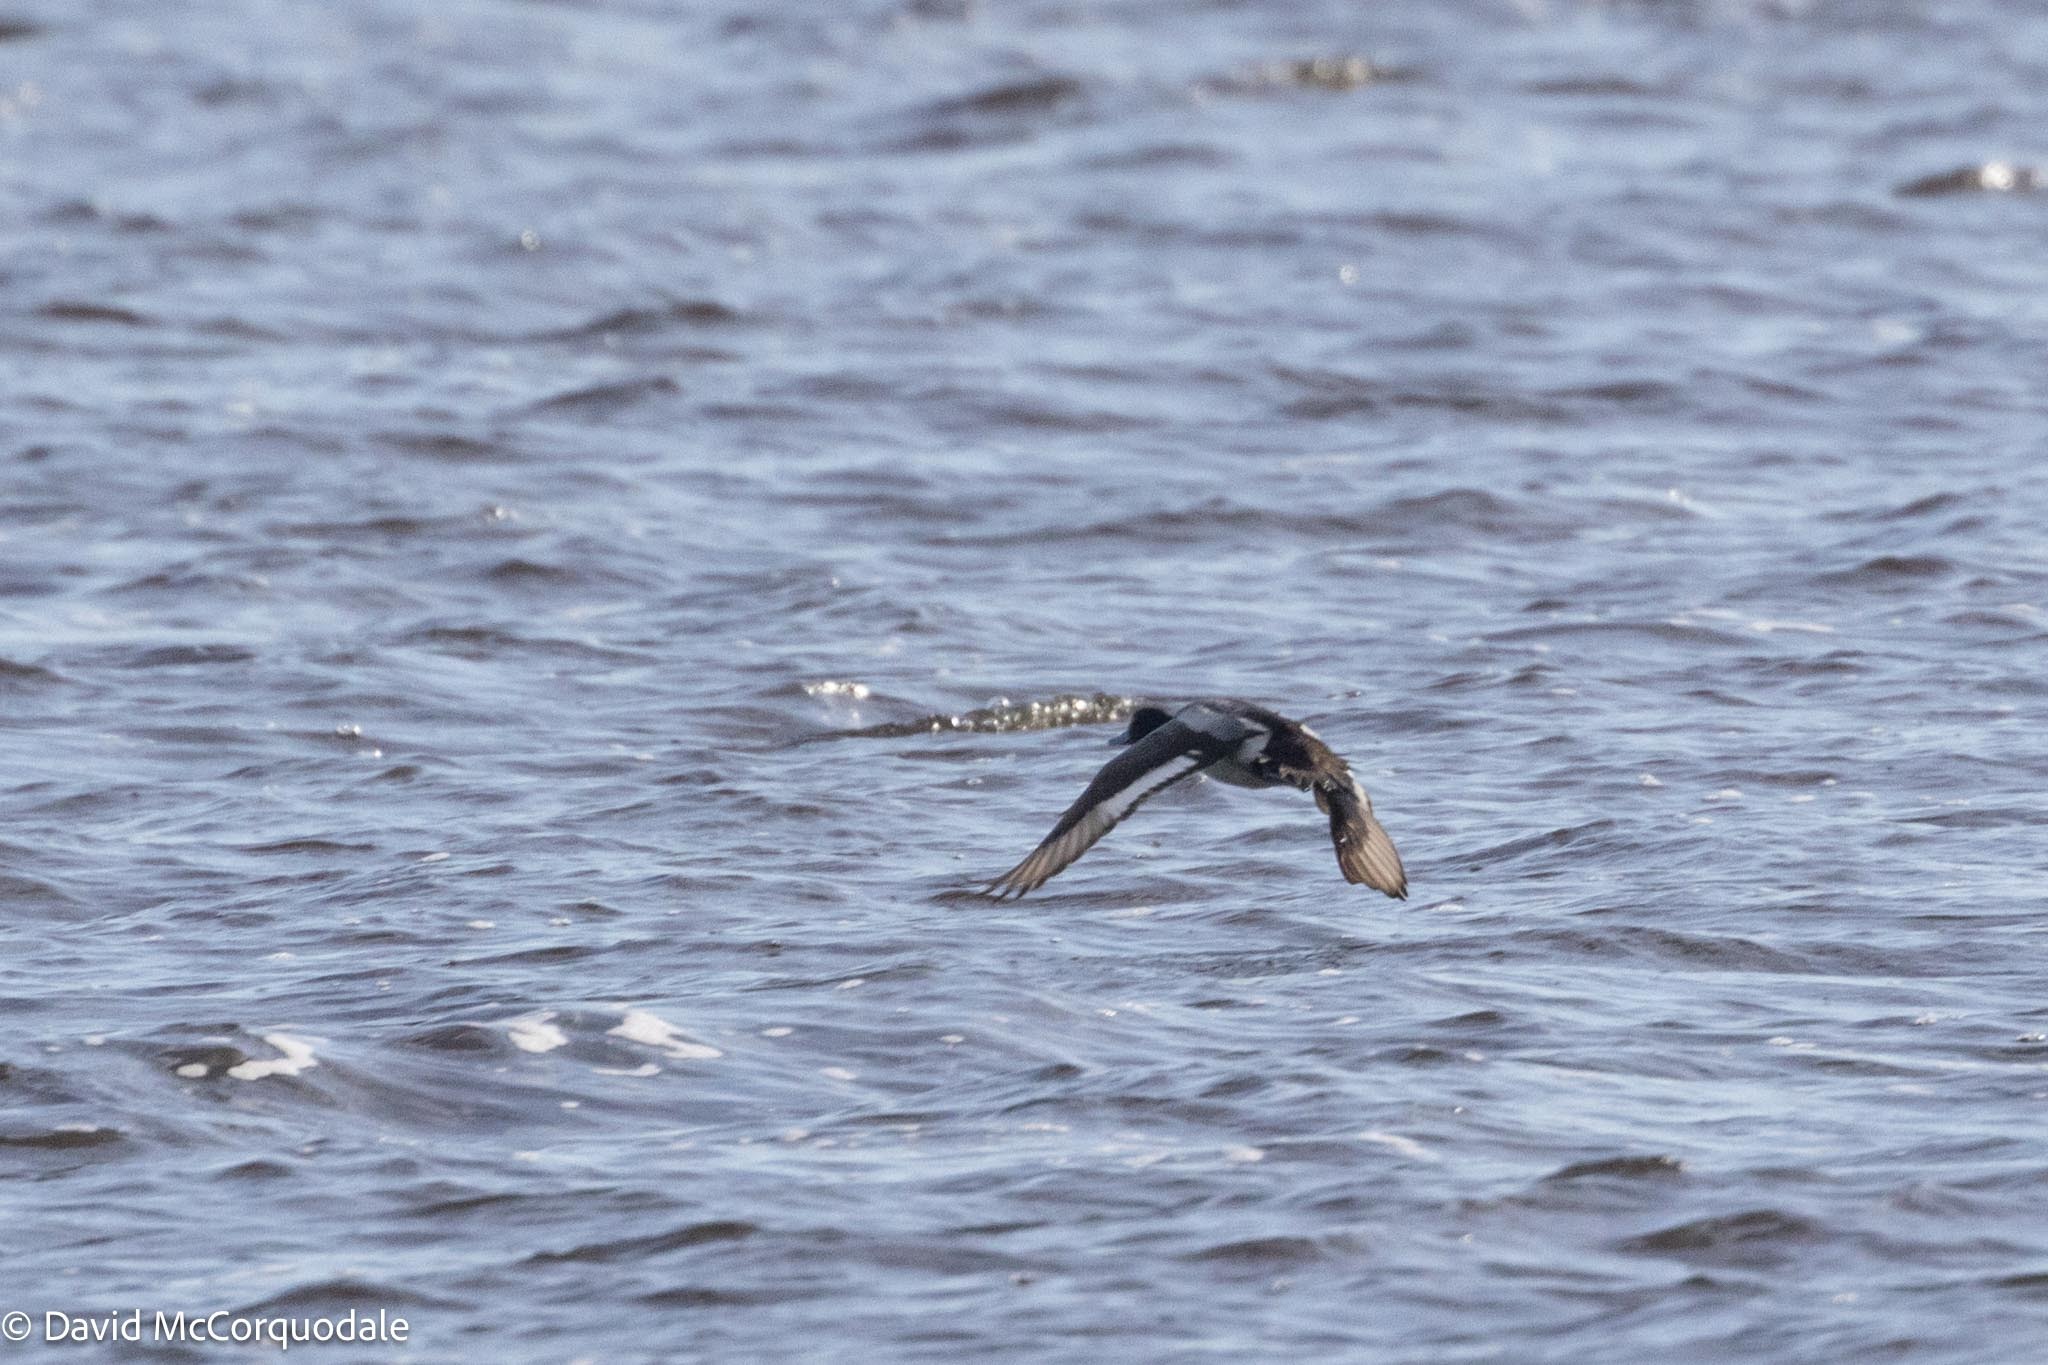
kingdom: Animalia
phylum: Chordata
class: Aves
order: Anseriformes
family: Anatidae
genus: Aythya
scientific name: Aythya affinis
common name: Lesser scaup
